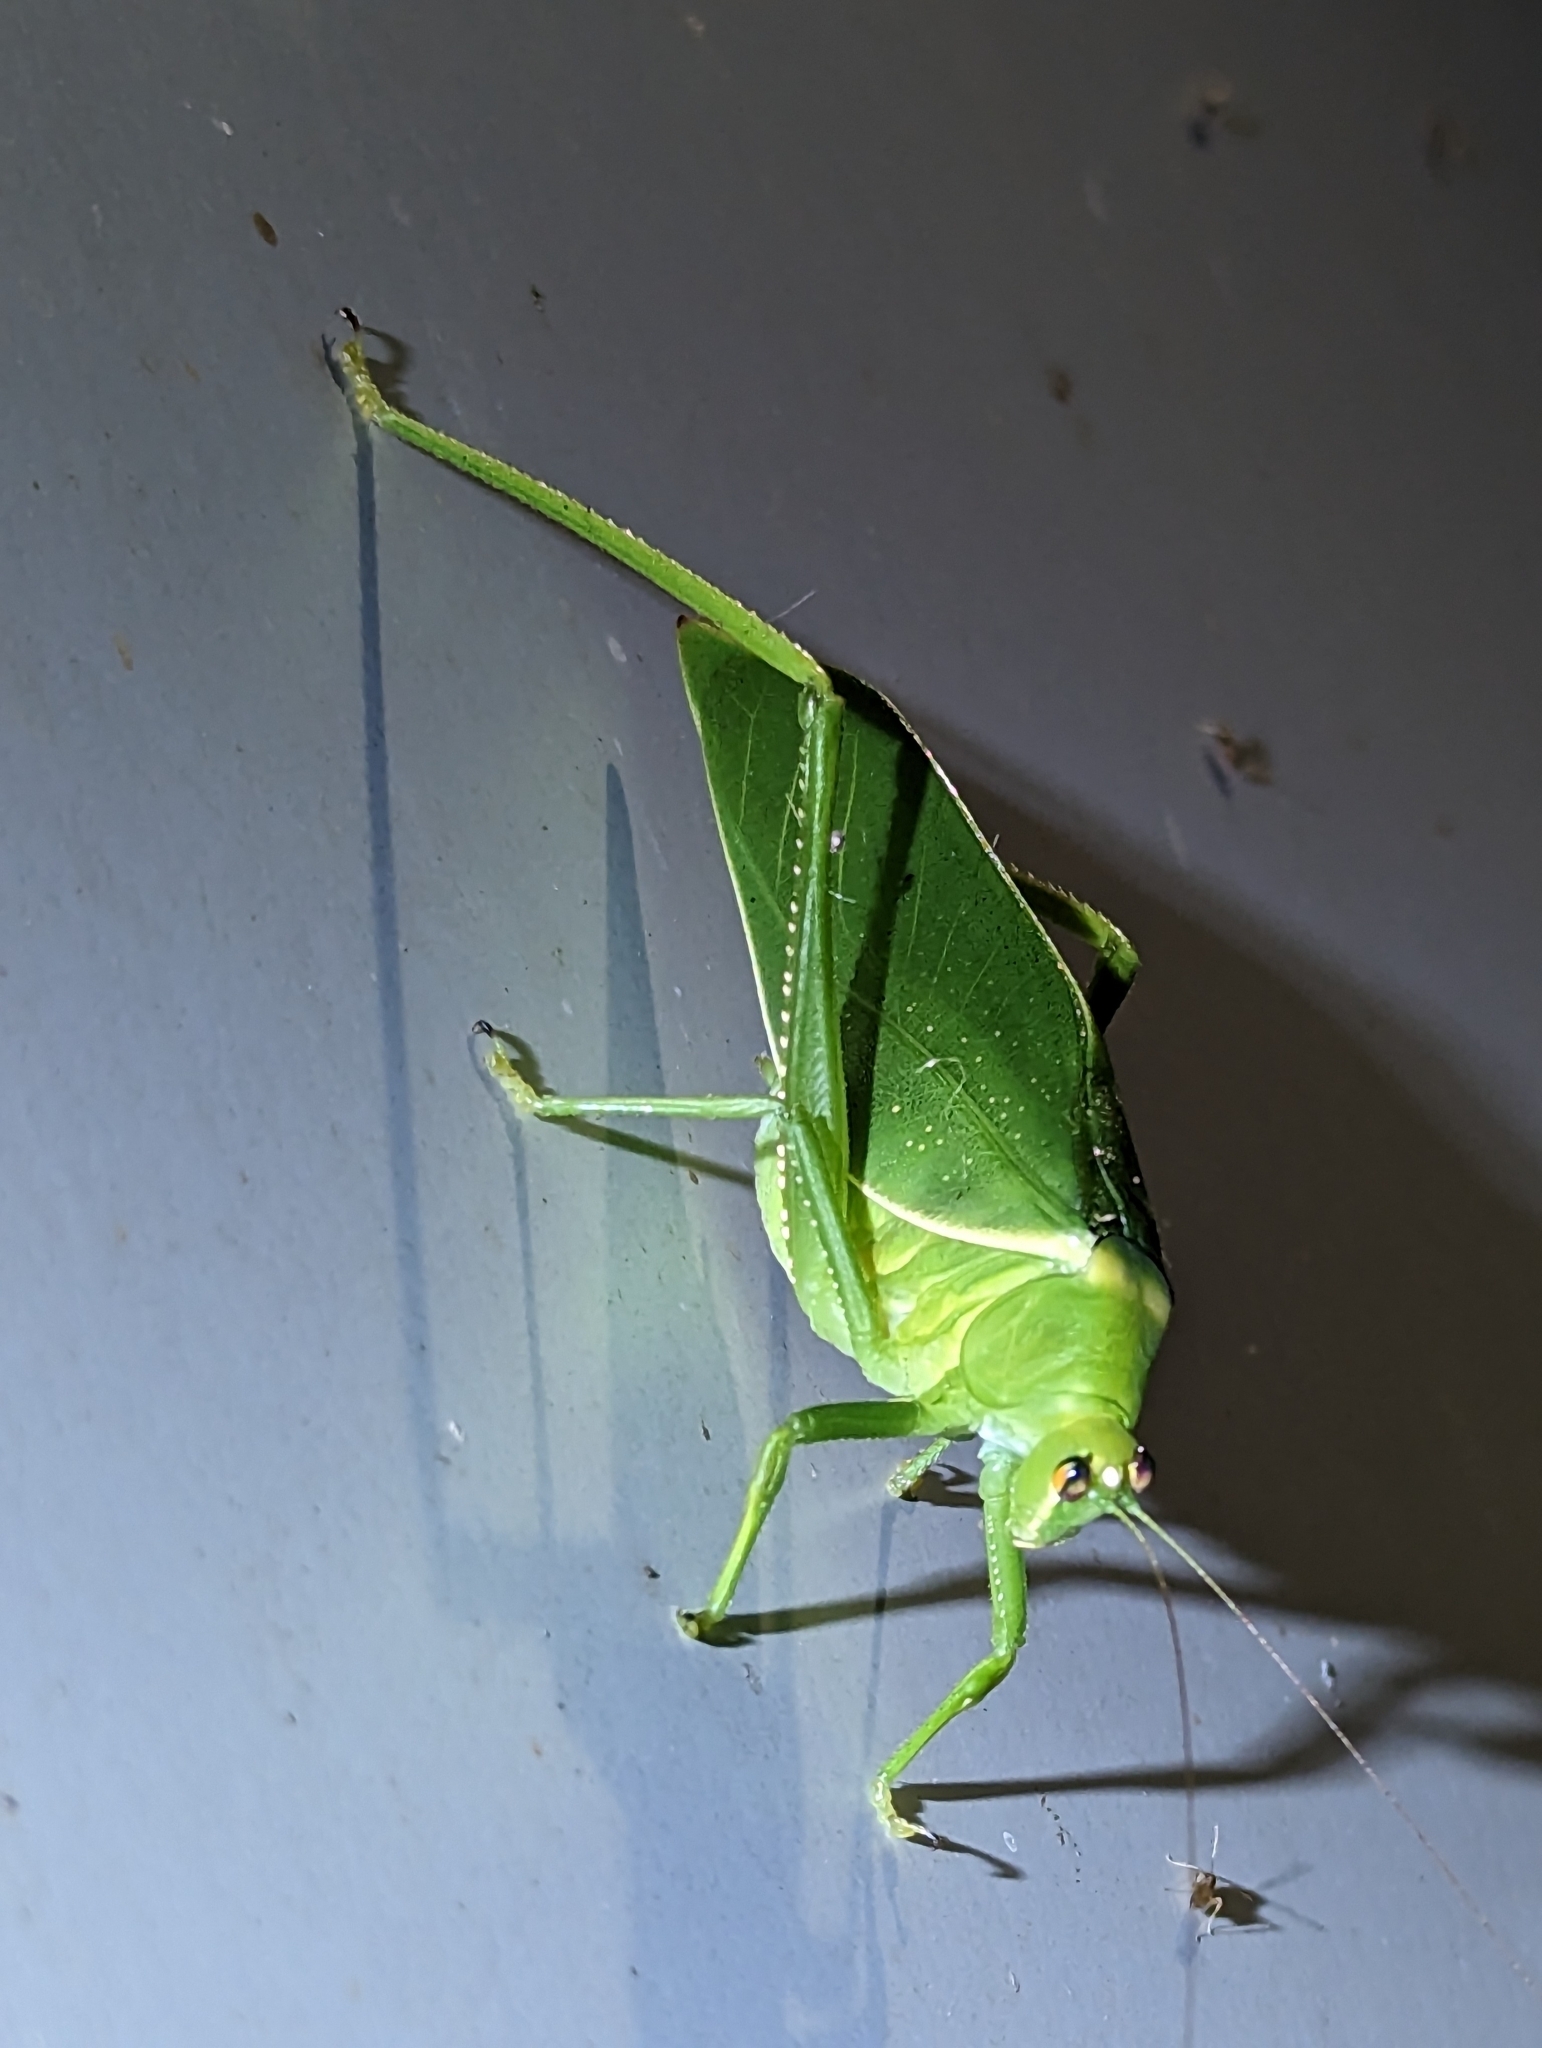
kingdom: Animalia
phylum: Arthropoda
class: Insecta
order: Orthoptera
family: Tettigoniidae
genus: Paracaedicia
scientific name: Paracaedicia serrata
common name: Serrated bush katydid
